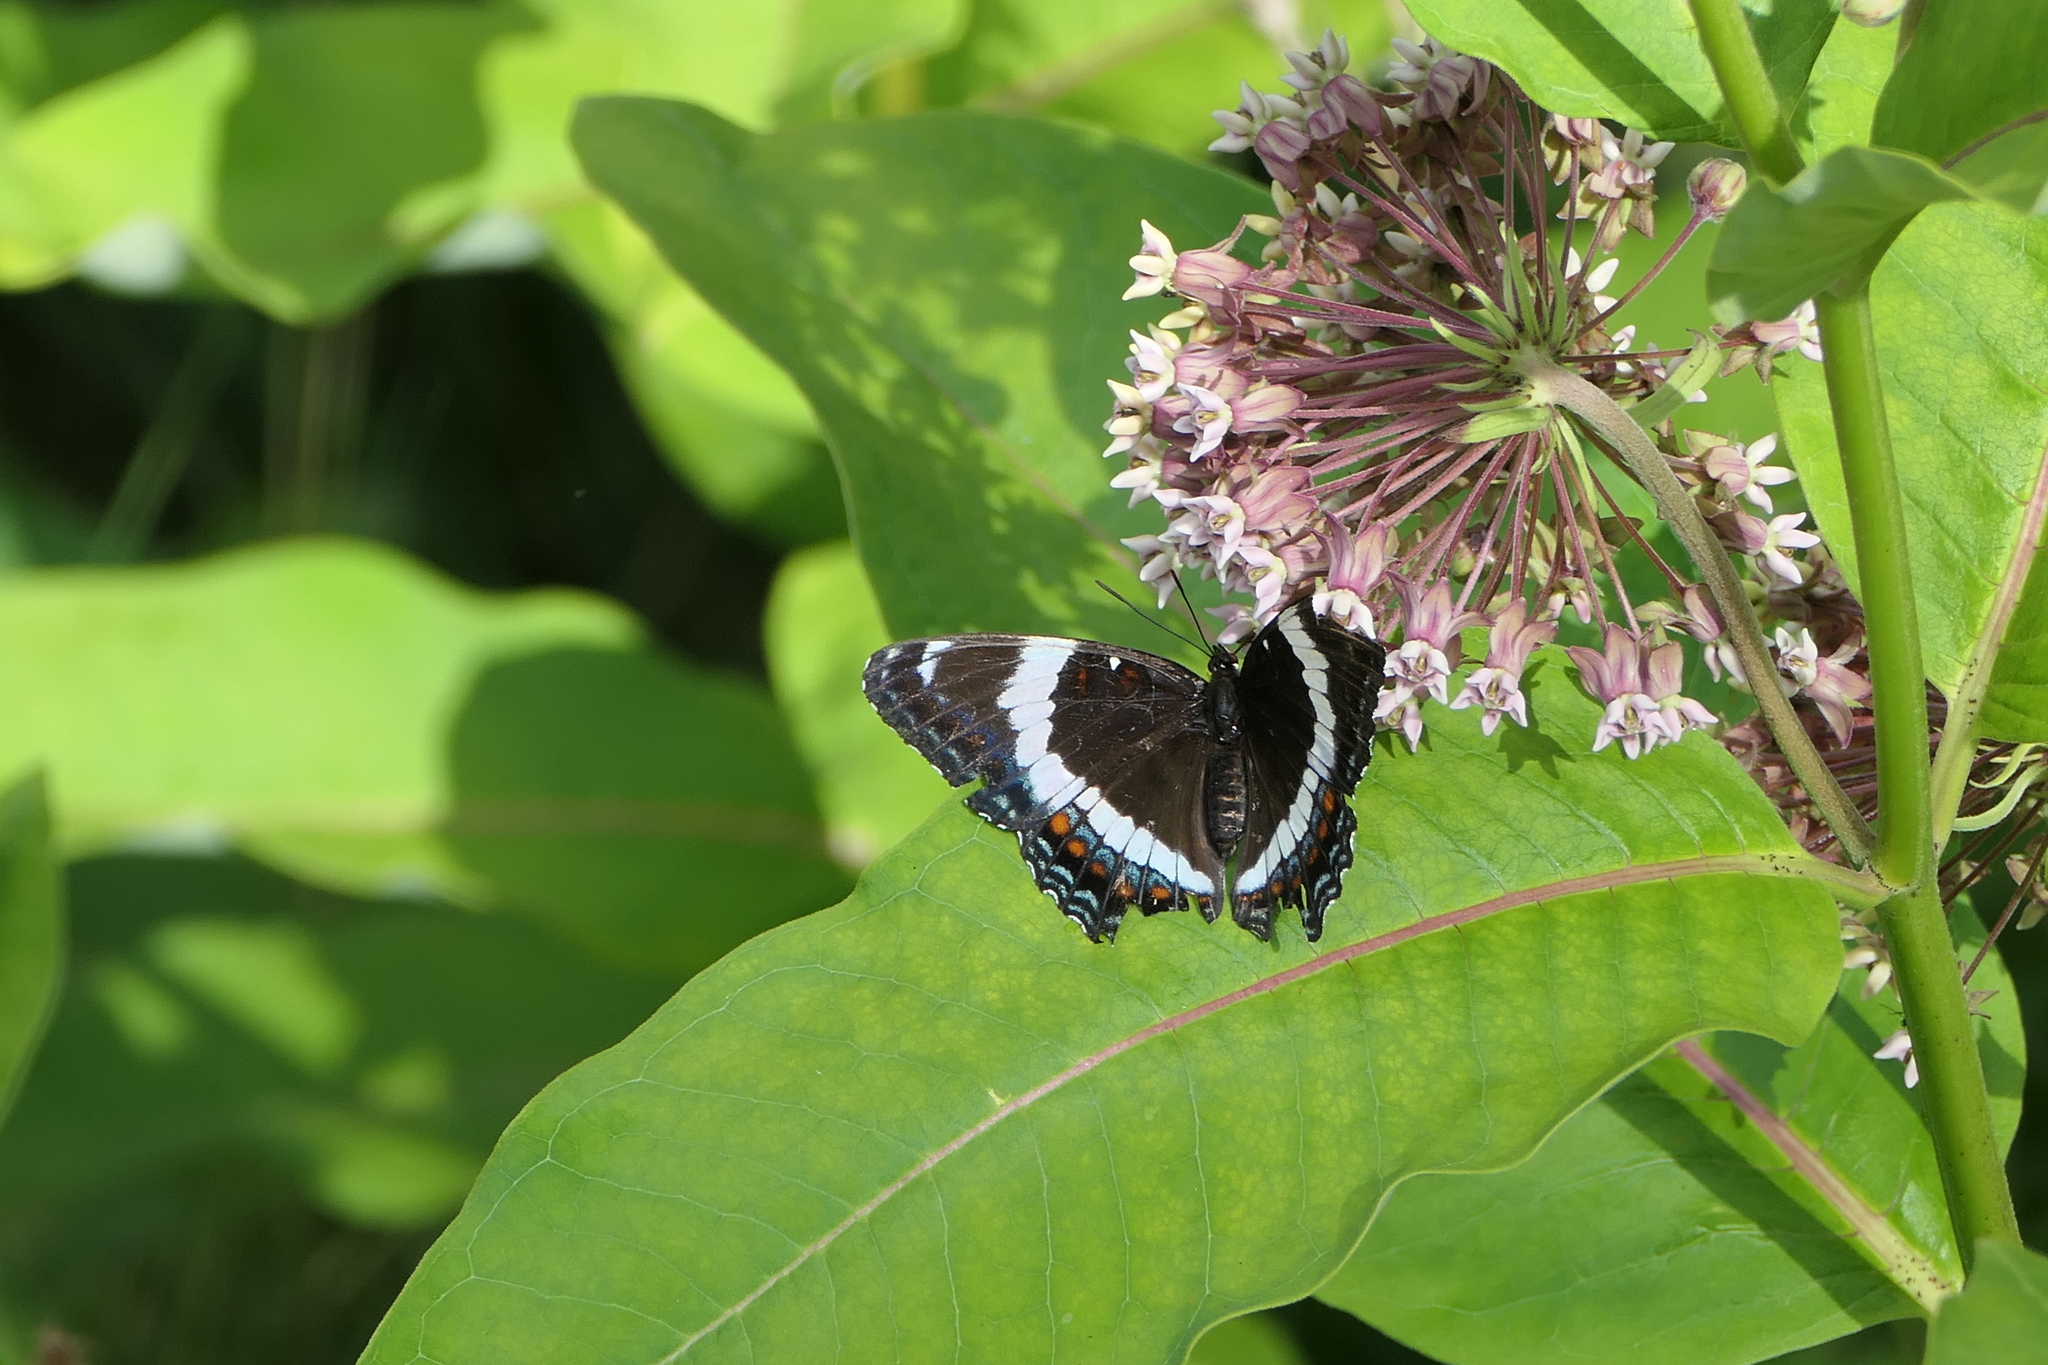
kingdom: Animalia
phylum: Arthropoda
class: Insecta
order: Lepidoptera
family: Nymphalidae
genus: Limenitis
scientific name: Limenitis arthemis
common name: Red-spotted admiral
